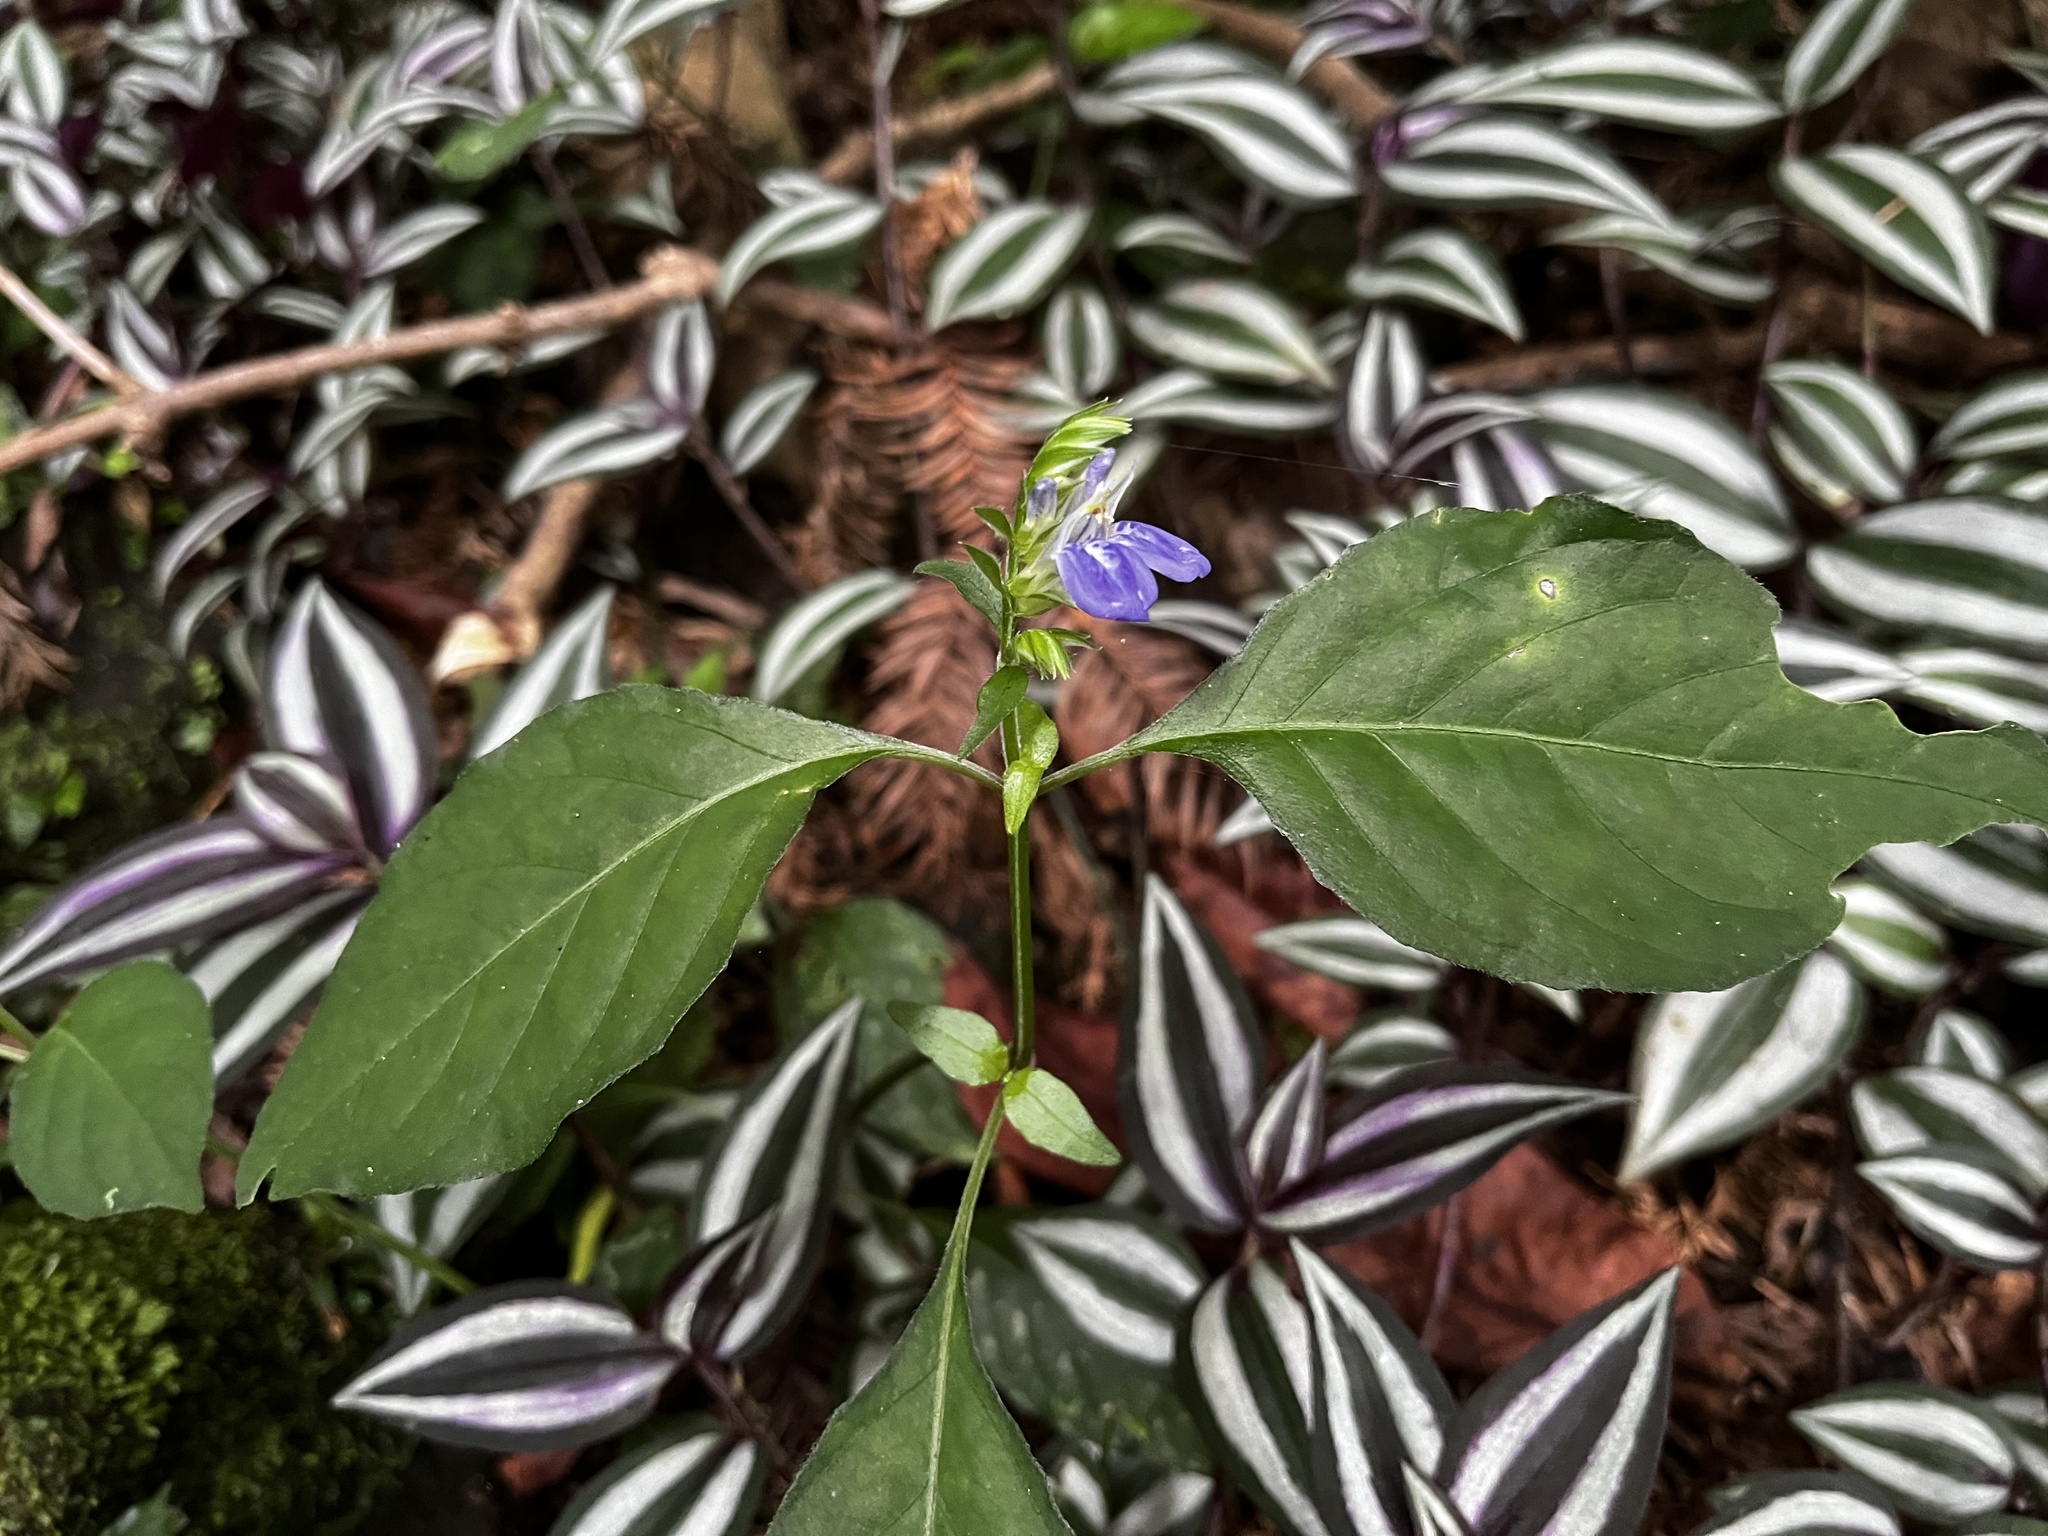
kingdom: Plantae
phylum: Tracheophyta
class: Magnoliopsida
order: Lamiales
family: Acanthaceae
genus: Rungia
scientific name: Rungia taiwanensis
